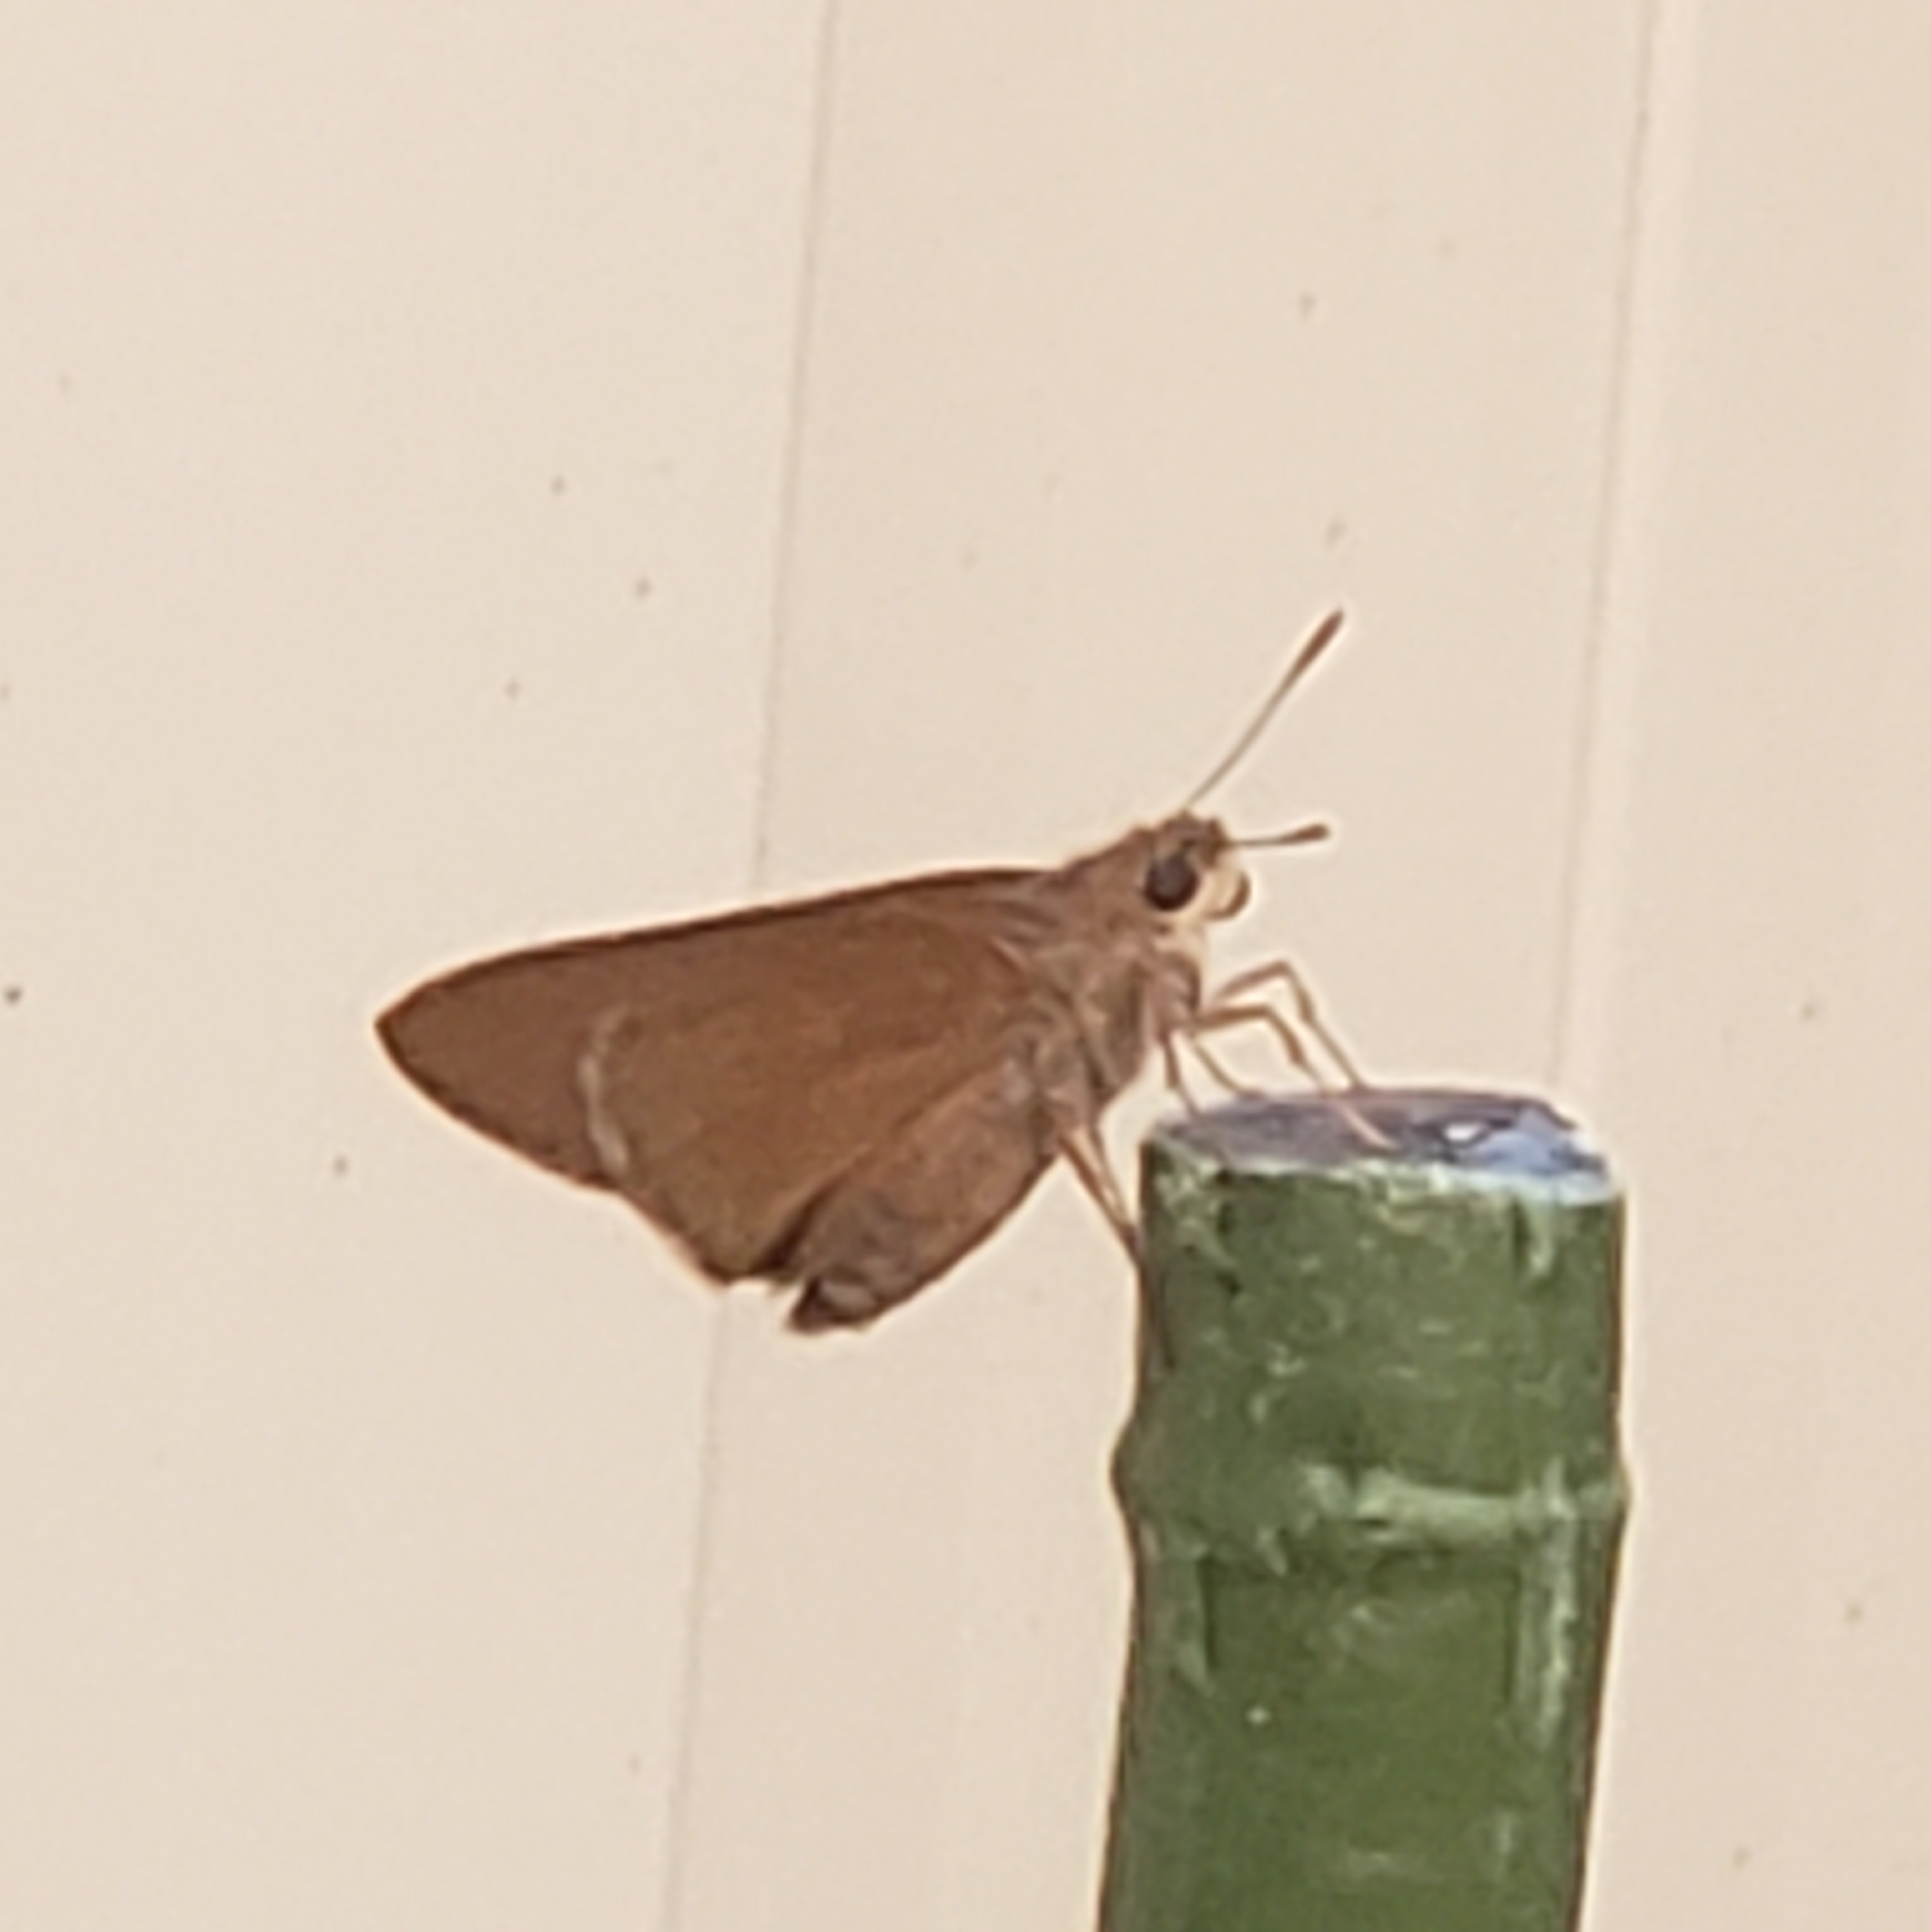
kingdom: Animalia
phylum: Arthropoda
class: Insecta
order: Lepidoptera
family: Hesperiidae
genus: Asbolis
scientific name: Asbolis capucinus
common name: Monk skipper
